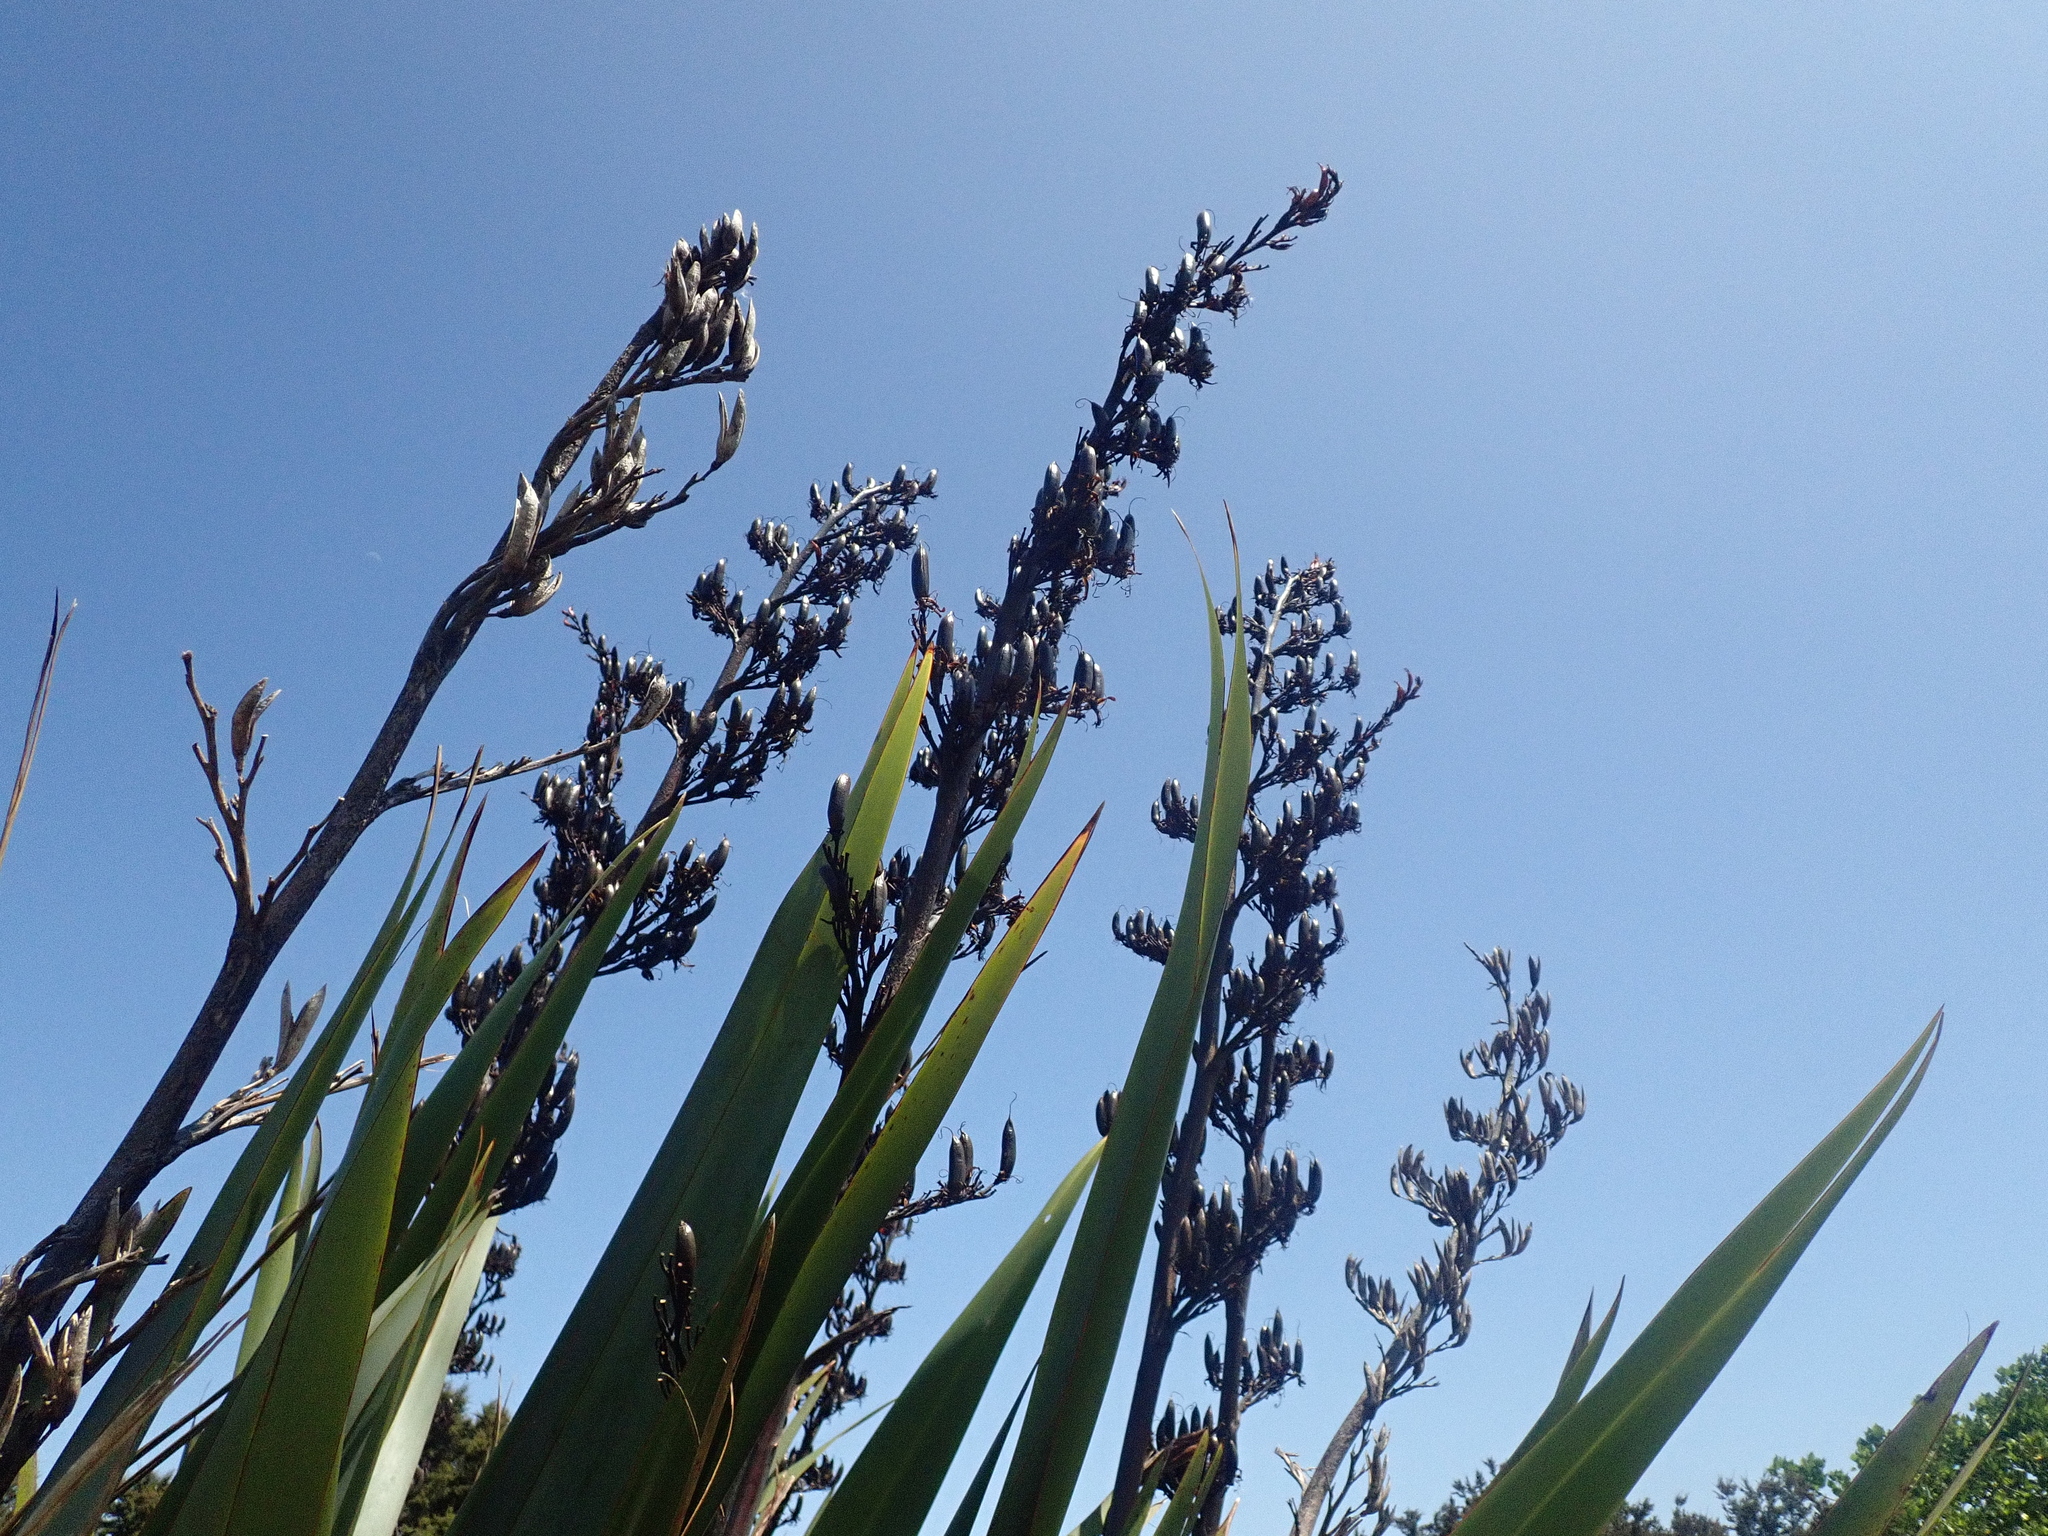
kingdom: Plantae
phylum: Tracheophyta
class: Liliopsida
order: Asparagales
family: Asphodelaceae
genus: Phormium
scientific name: Phormium tenax
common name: New zealand flax
